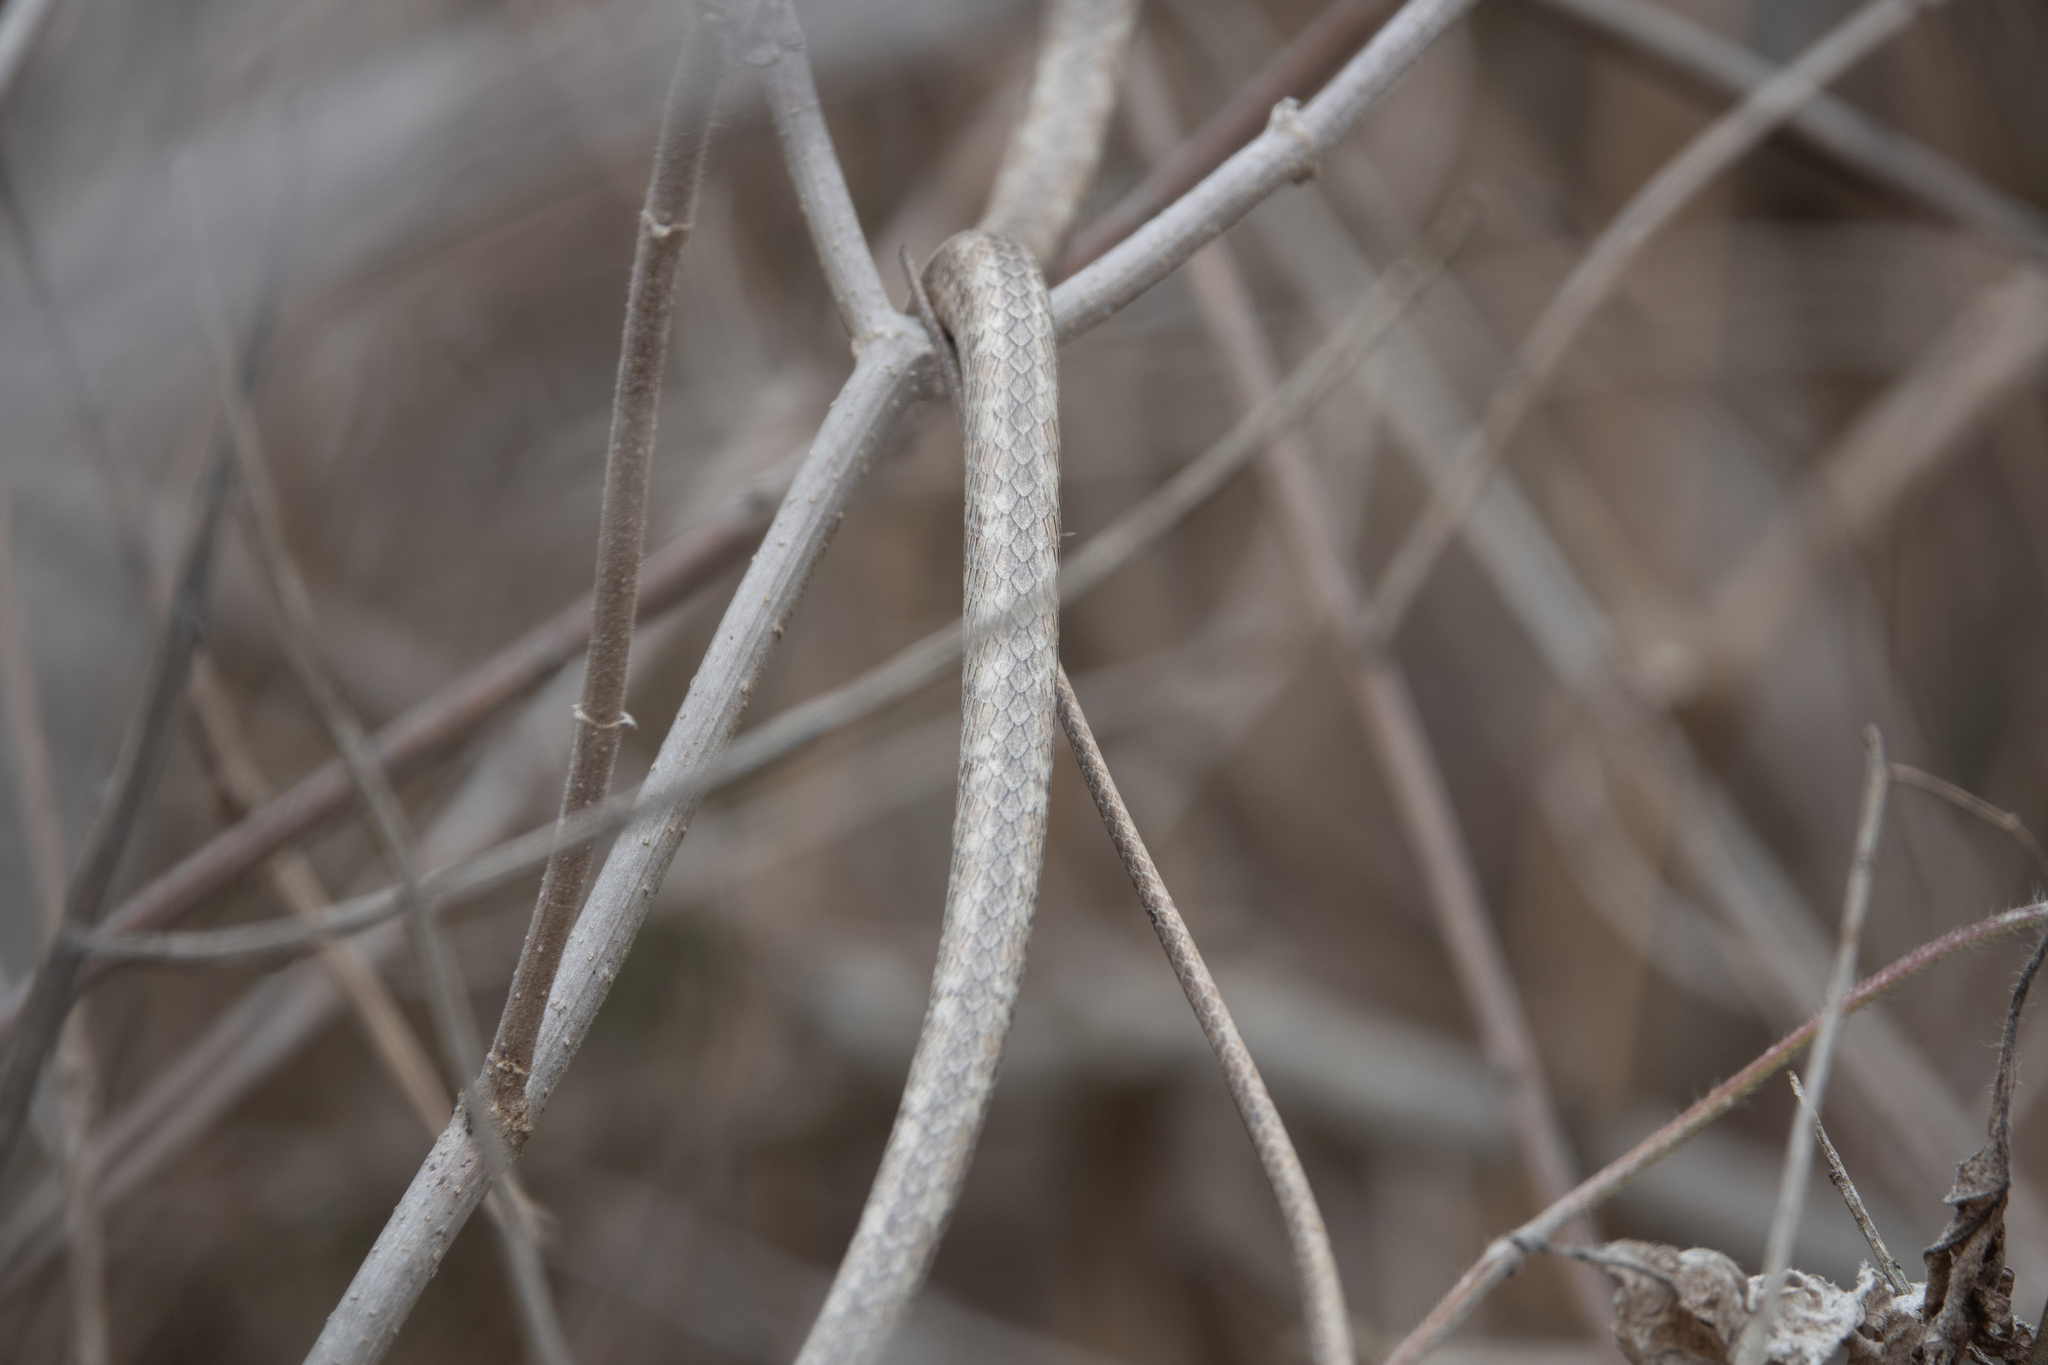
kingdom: Animalia
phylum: Chordata
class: Squamata
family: Colubridae
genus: Oxybelis
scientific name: Oxybelis transandinus
